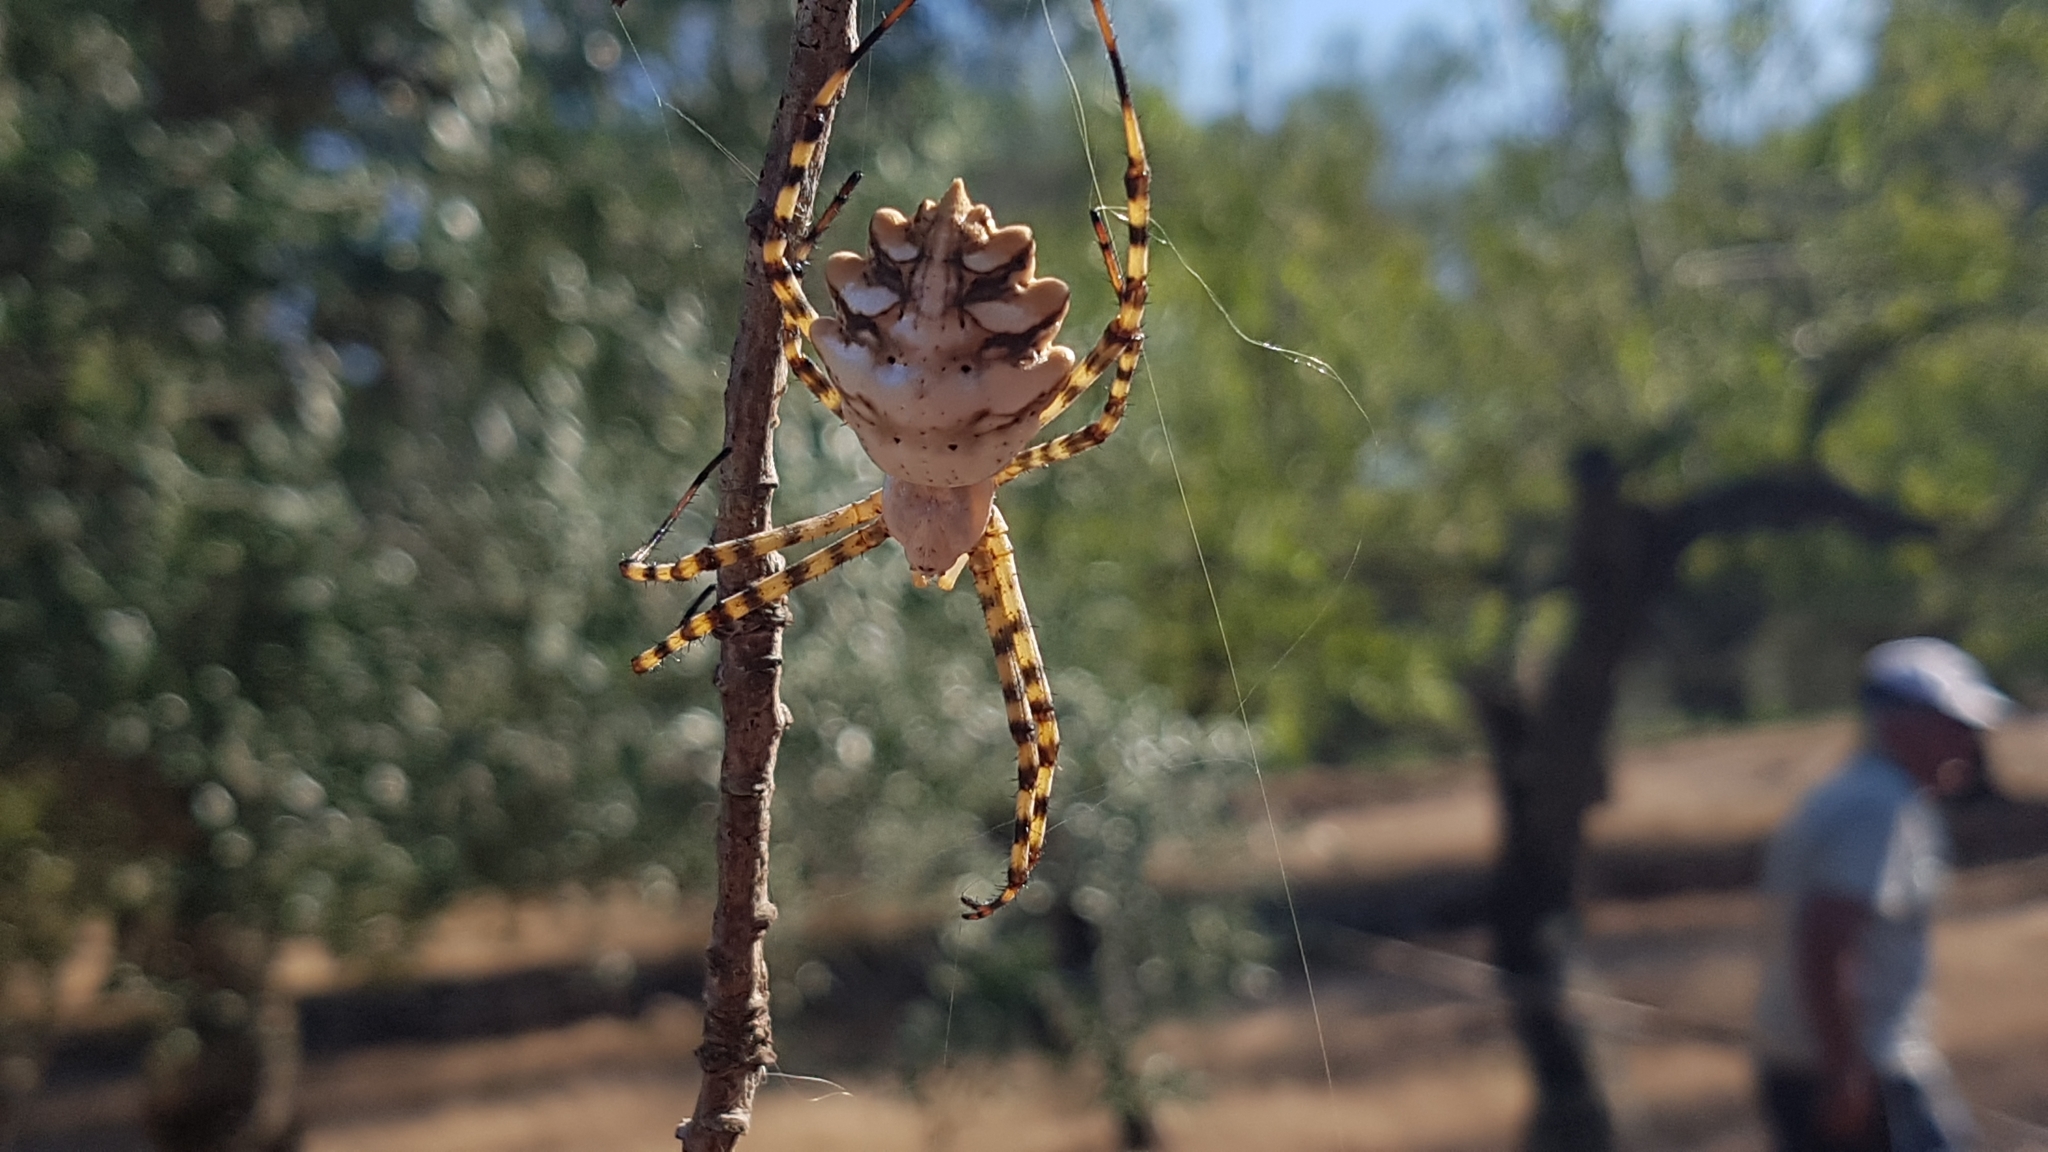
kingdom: Animalia
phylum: Arthropoda
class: Arachnida
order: Araneae
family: Araneidae
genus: Argiope
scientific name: Argiope lobata
